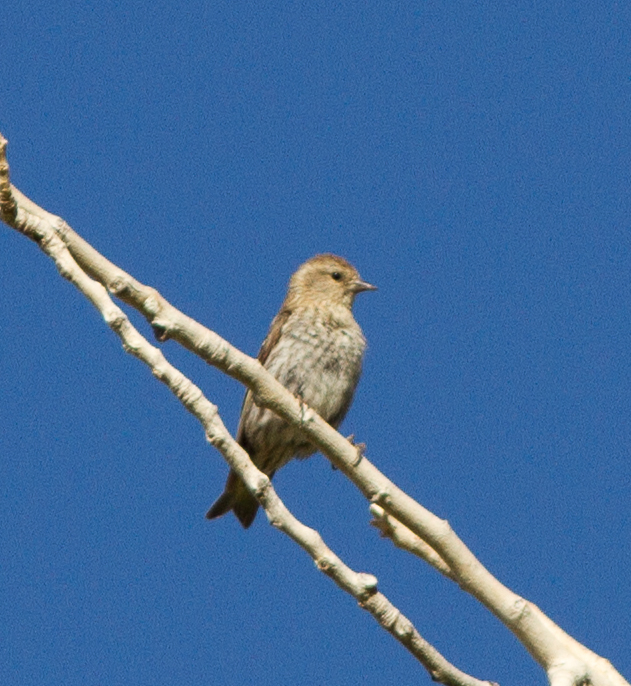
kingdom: Animalia
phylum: Chordata
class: Aves
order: Passeriformes
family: Fringillidae
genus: Spinus
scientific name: Spinus pinus
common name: Pine siskin
